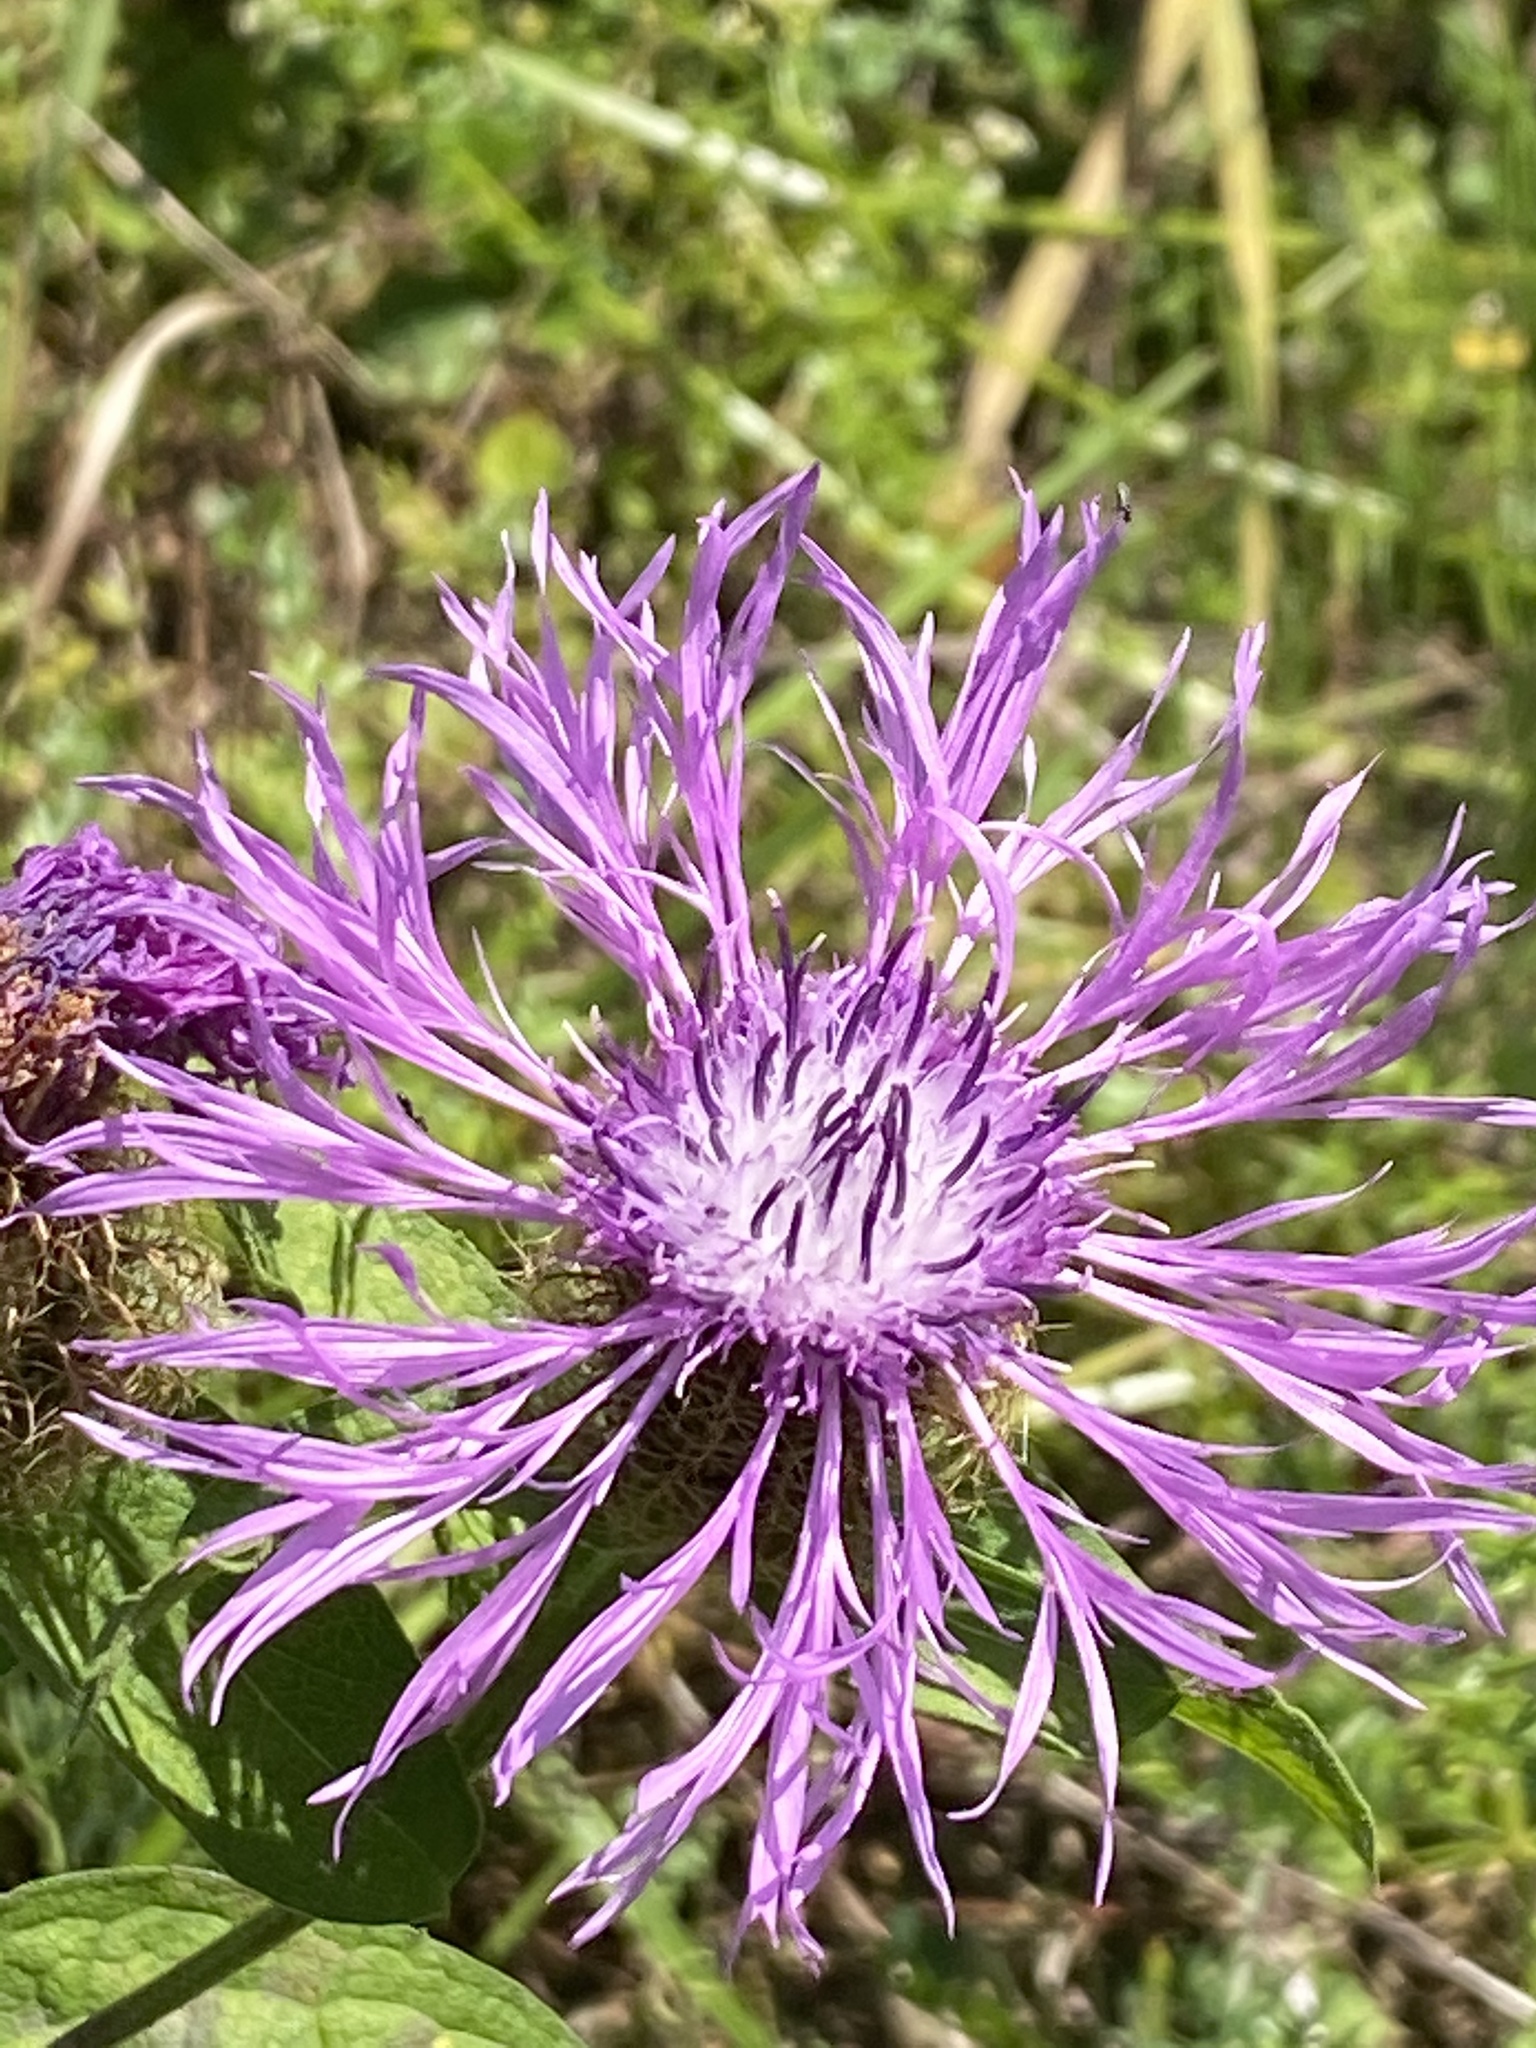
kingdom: Plantae
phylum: Tracheophyta
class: Magnoliopsida
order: Asterales
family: Asteraceae
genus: Centaurea
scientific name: Centaurea phrygia
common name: Wig knapweed
